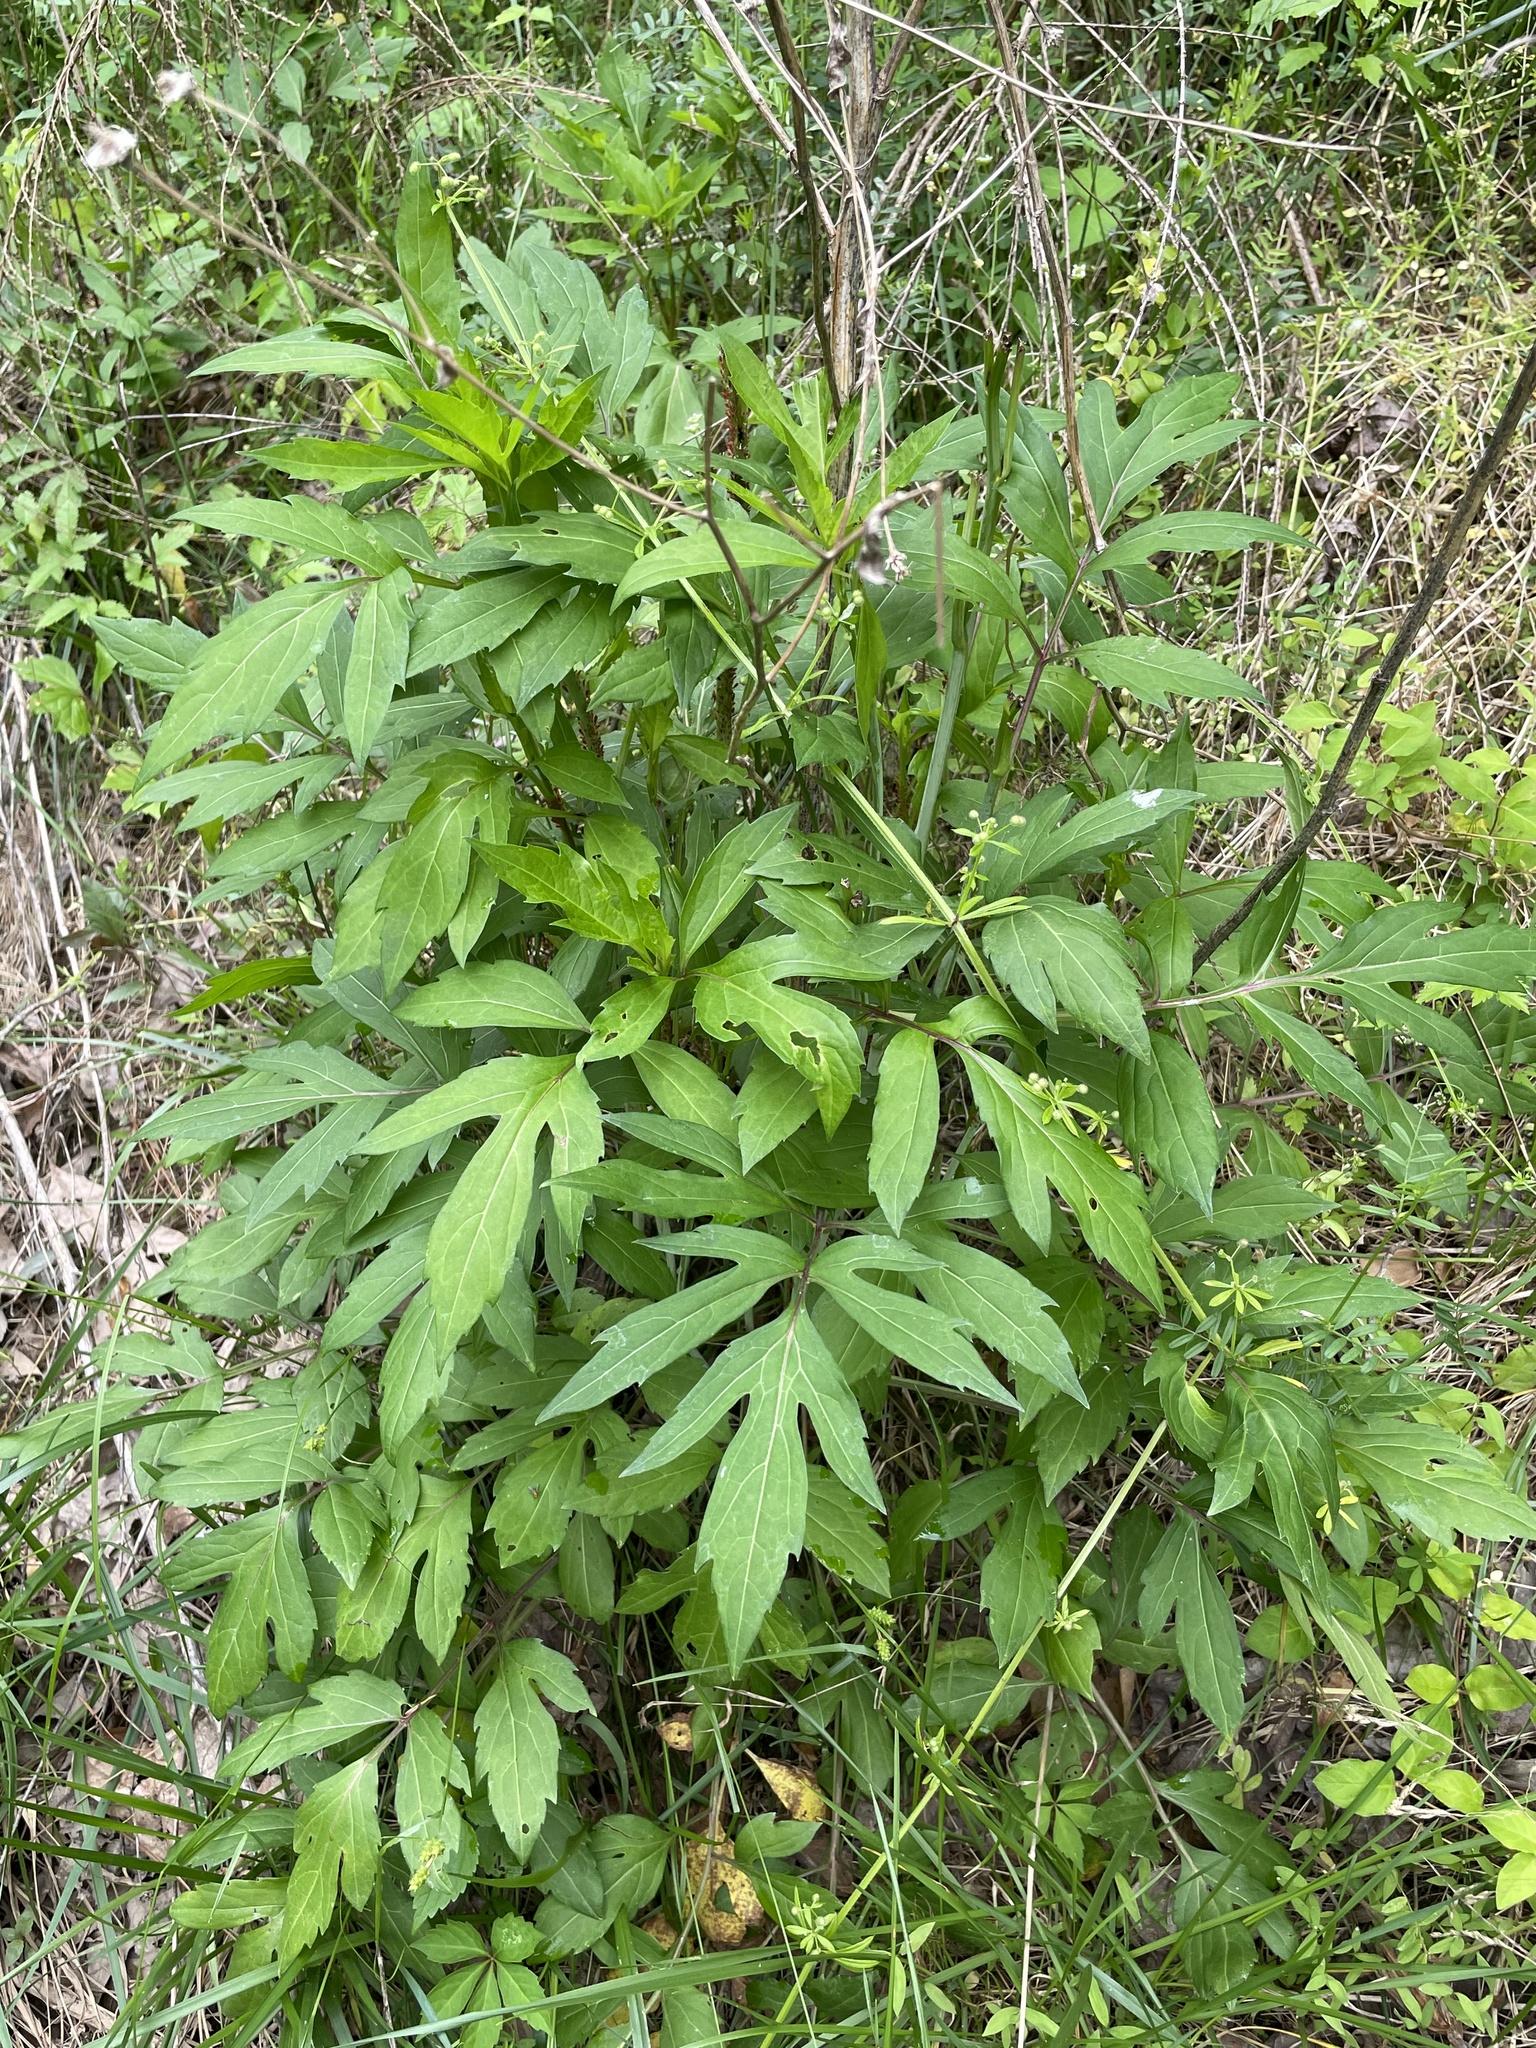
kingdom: Plantae
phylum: Tracheophyta
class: Magnoliopsida
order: Asterales
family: Asteraceae
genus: Rudbeckia
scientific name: Rudbeckia laciniata
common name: Coneflower
